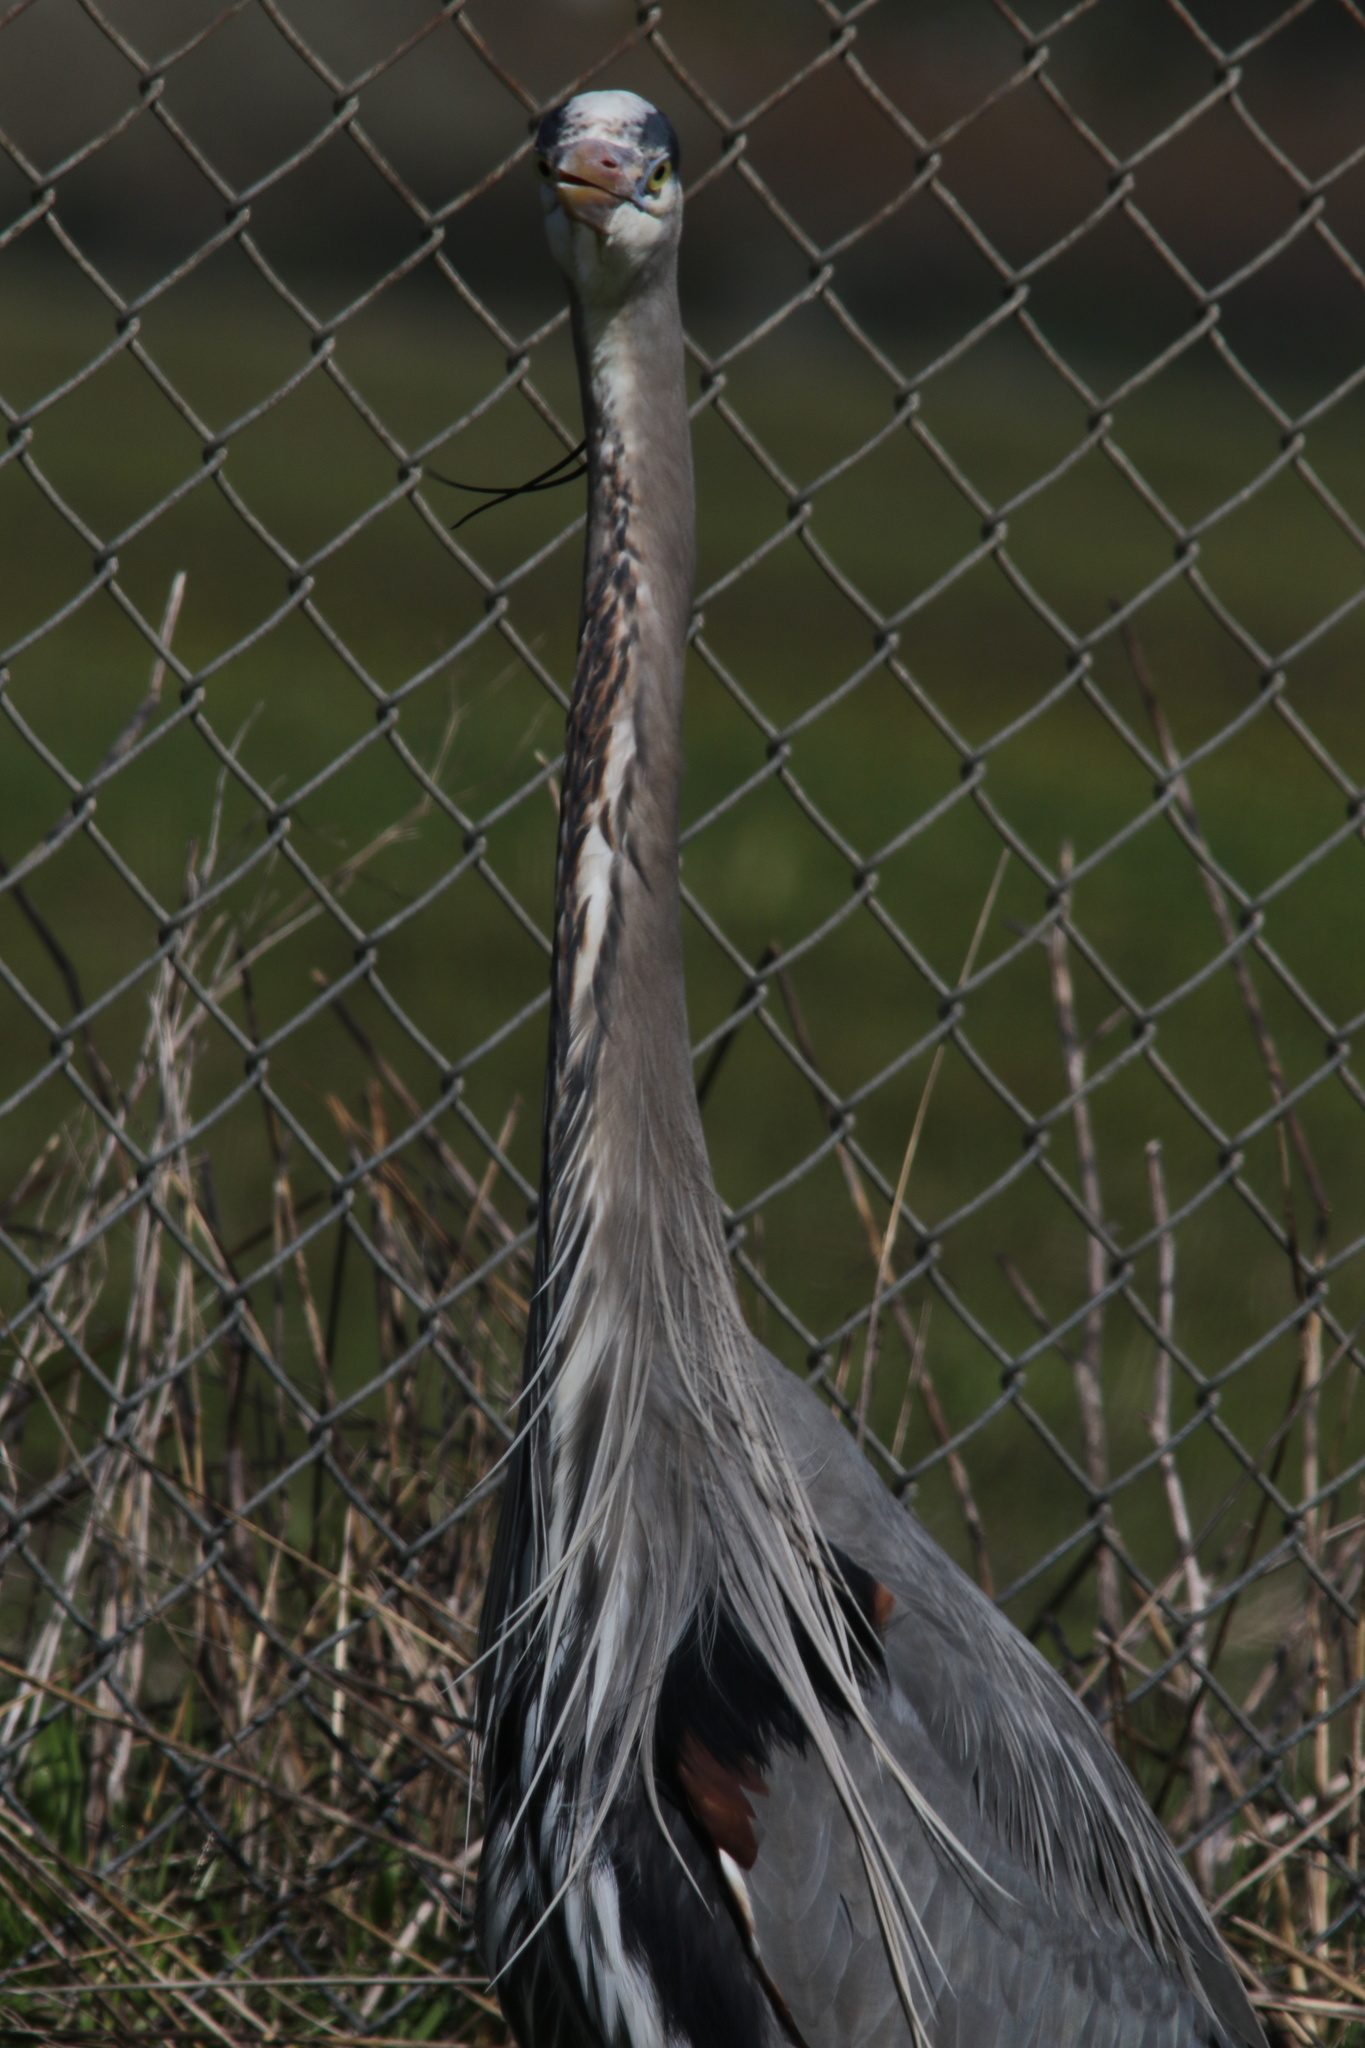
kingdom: Animalia
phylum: Chordata
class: Aves
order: Pelecaniformes
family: Ardeidae
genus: Ardea
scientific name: Ardea herodias
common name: Great blue heron
